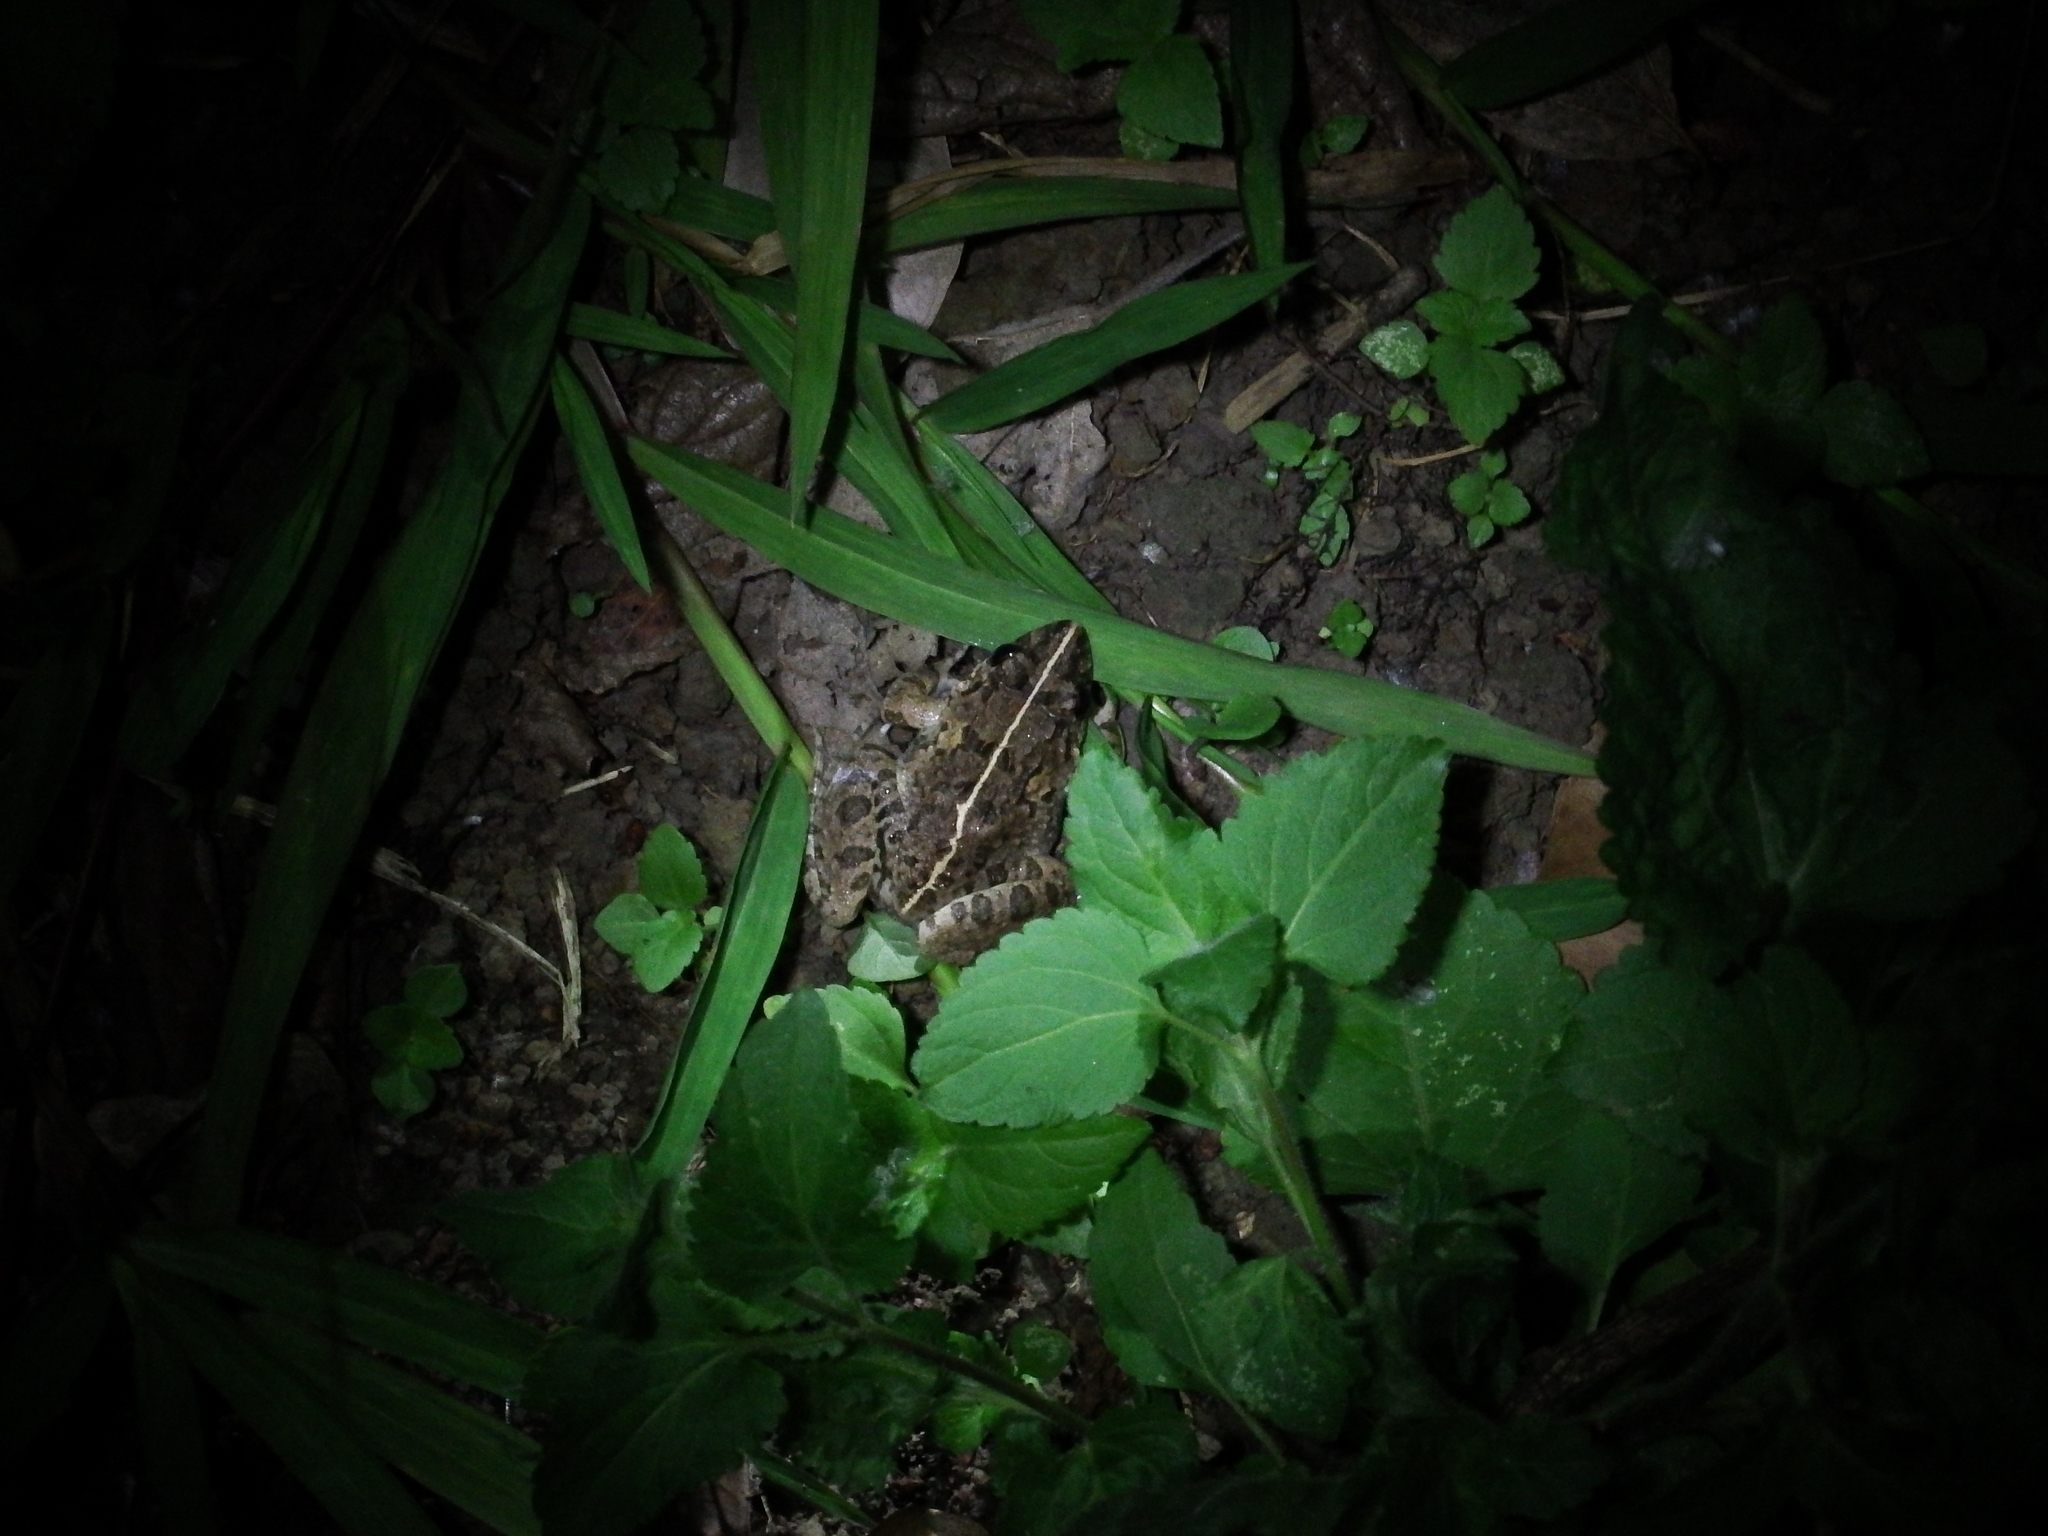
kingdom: Animalia
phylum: Chordata
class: Amphibia
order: Anura
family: Dicroglossidae
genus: Fejervarya
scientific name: Fejervarya limnocharis
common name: Asian grass frog/common pond frog/field frog/grass frog/indian rice frog
